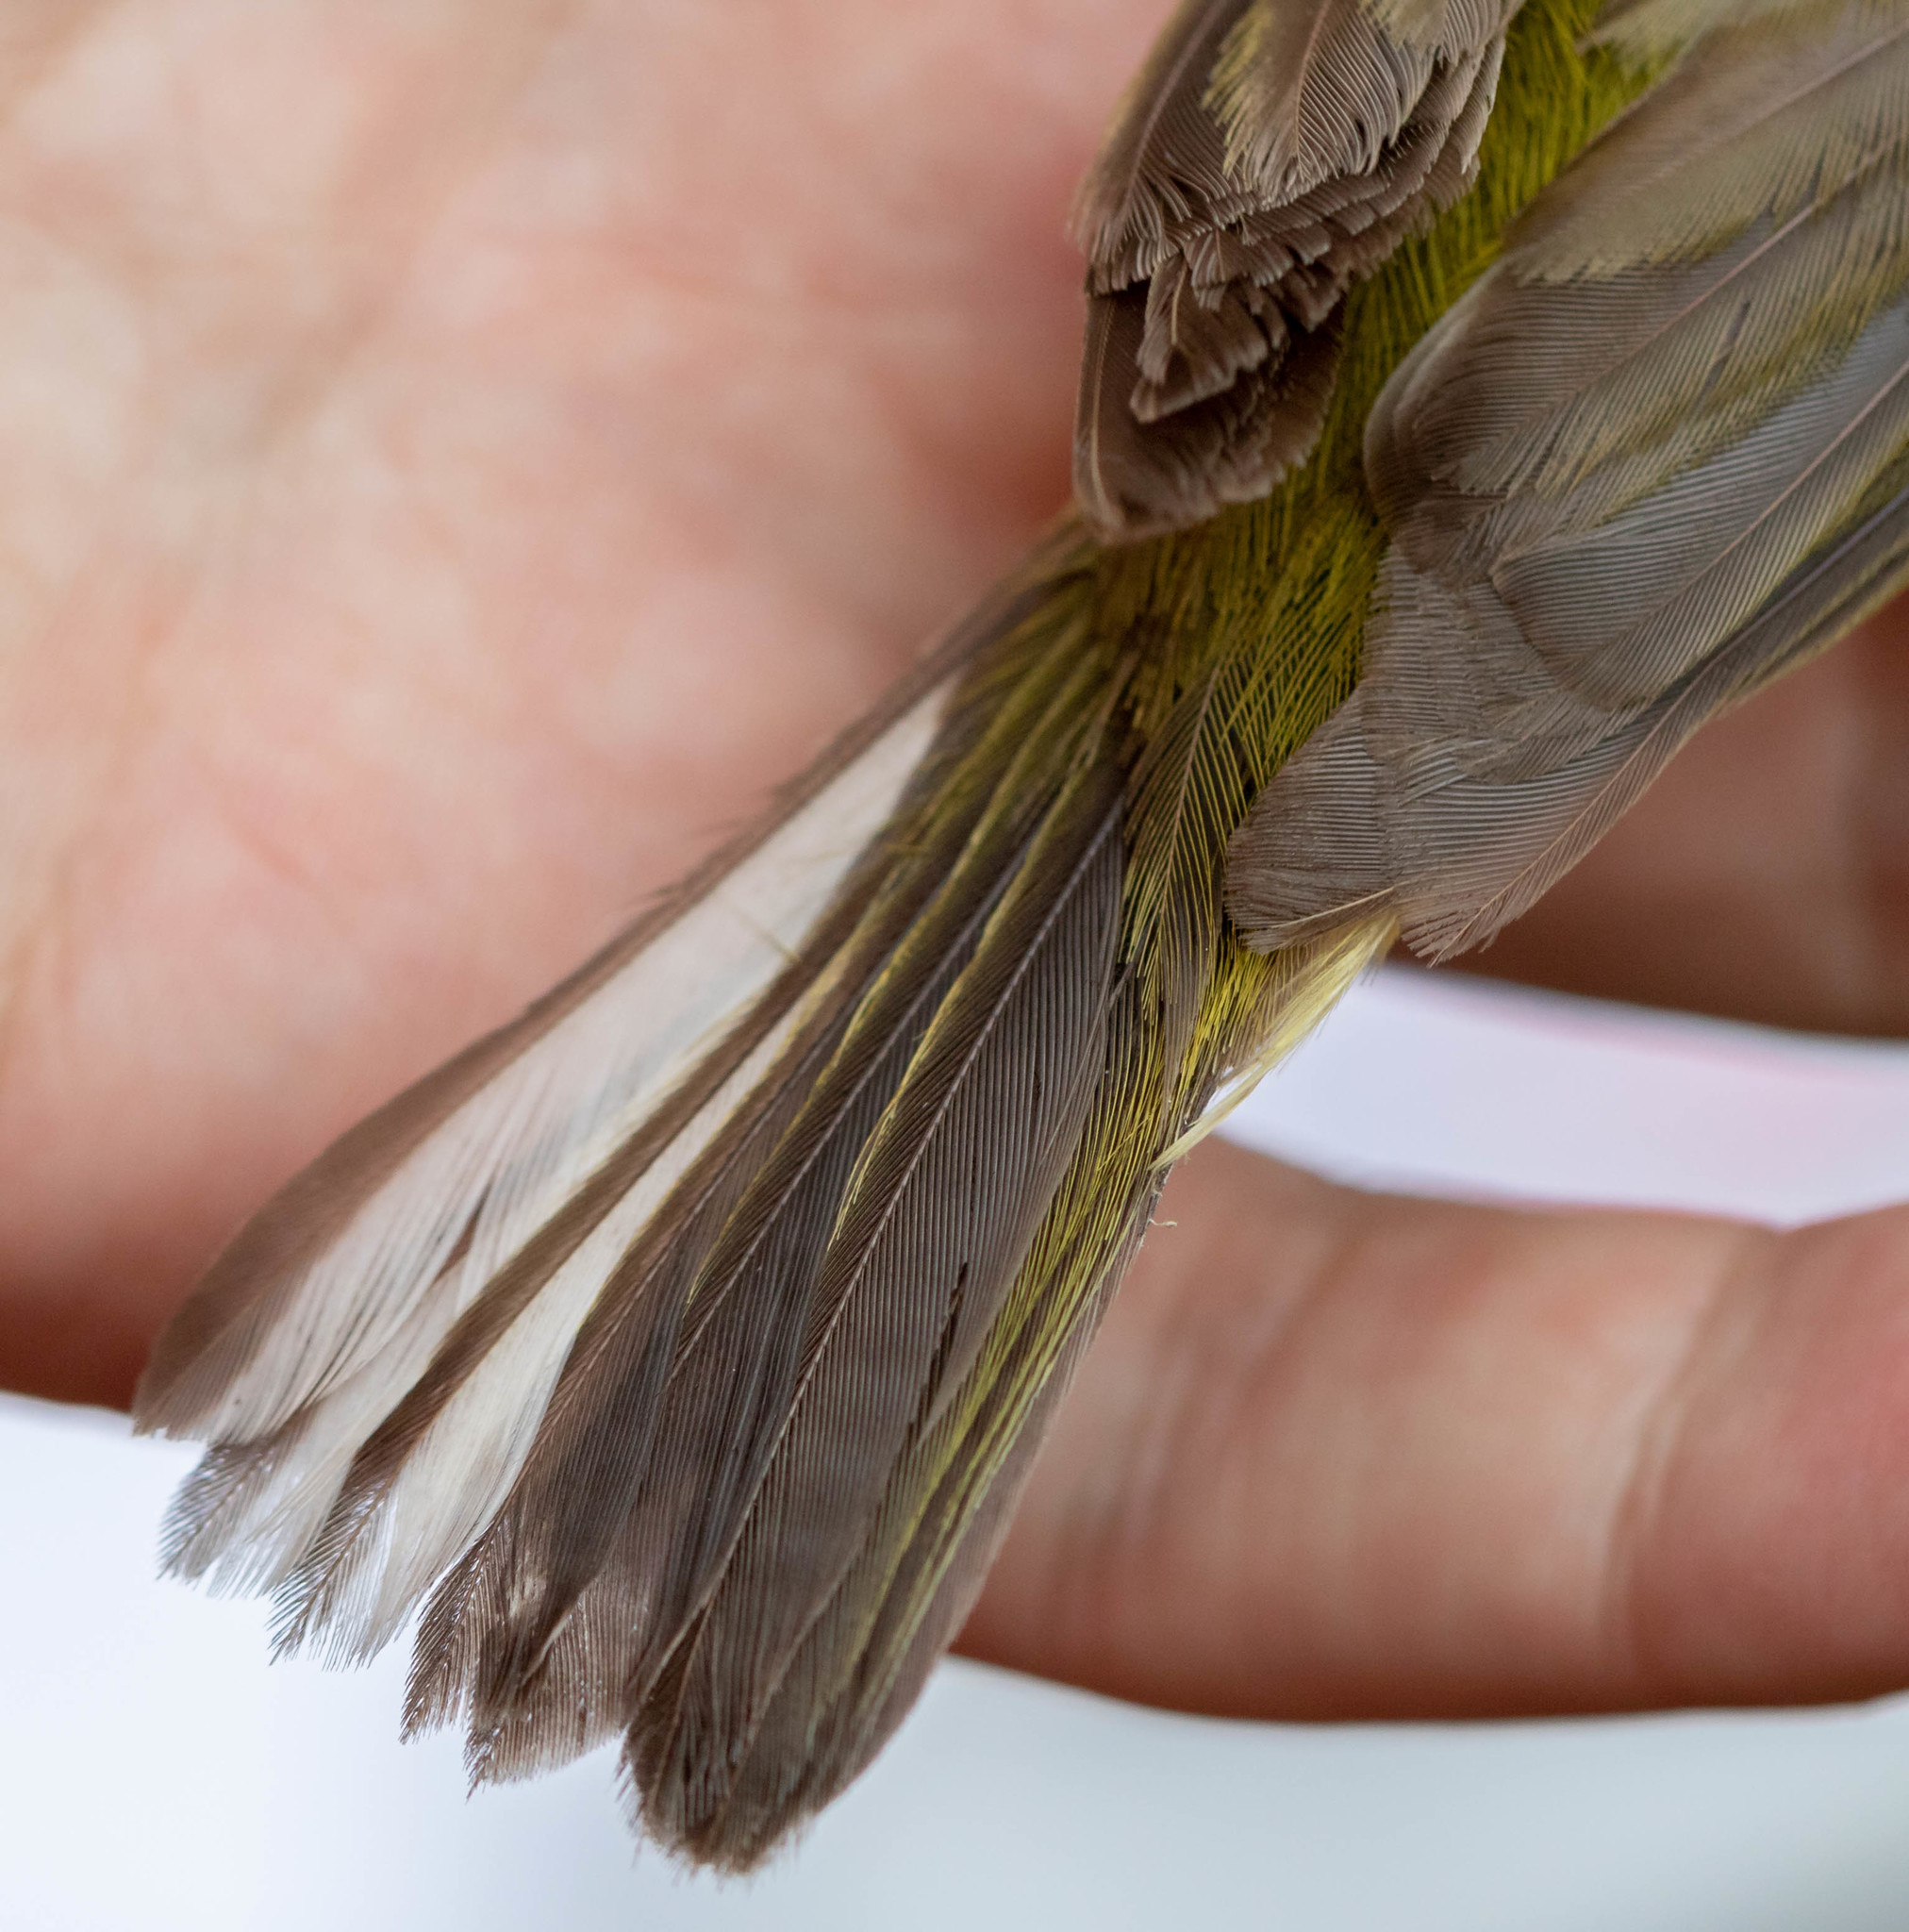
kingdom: Animalia
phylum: Chordata
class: Aves
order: Passeriformes
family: Parulidae
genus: Setophaga
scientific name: Setophaga citrina
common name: Hooded warbler
